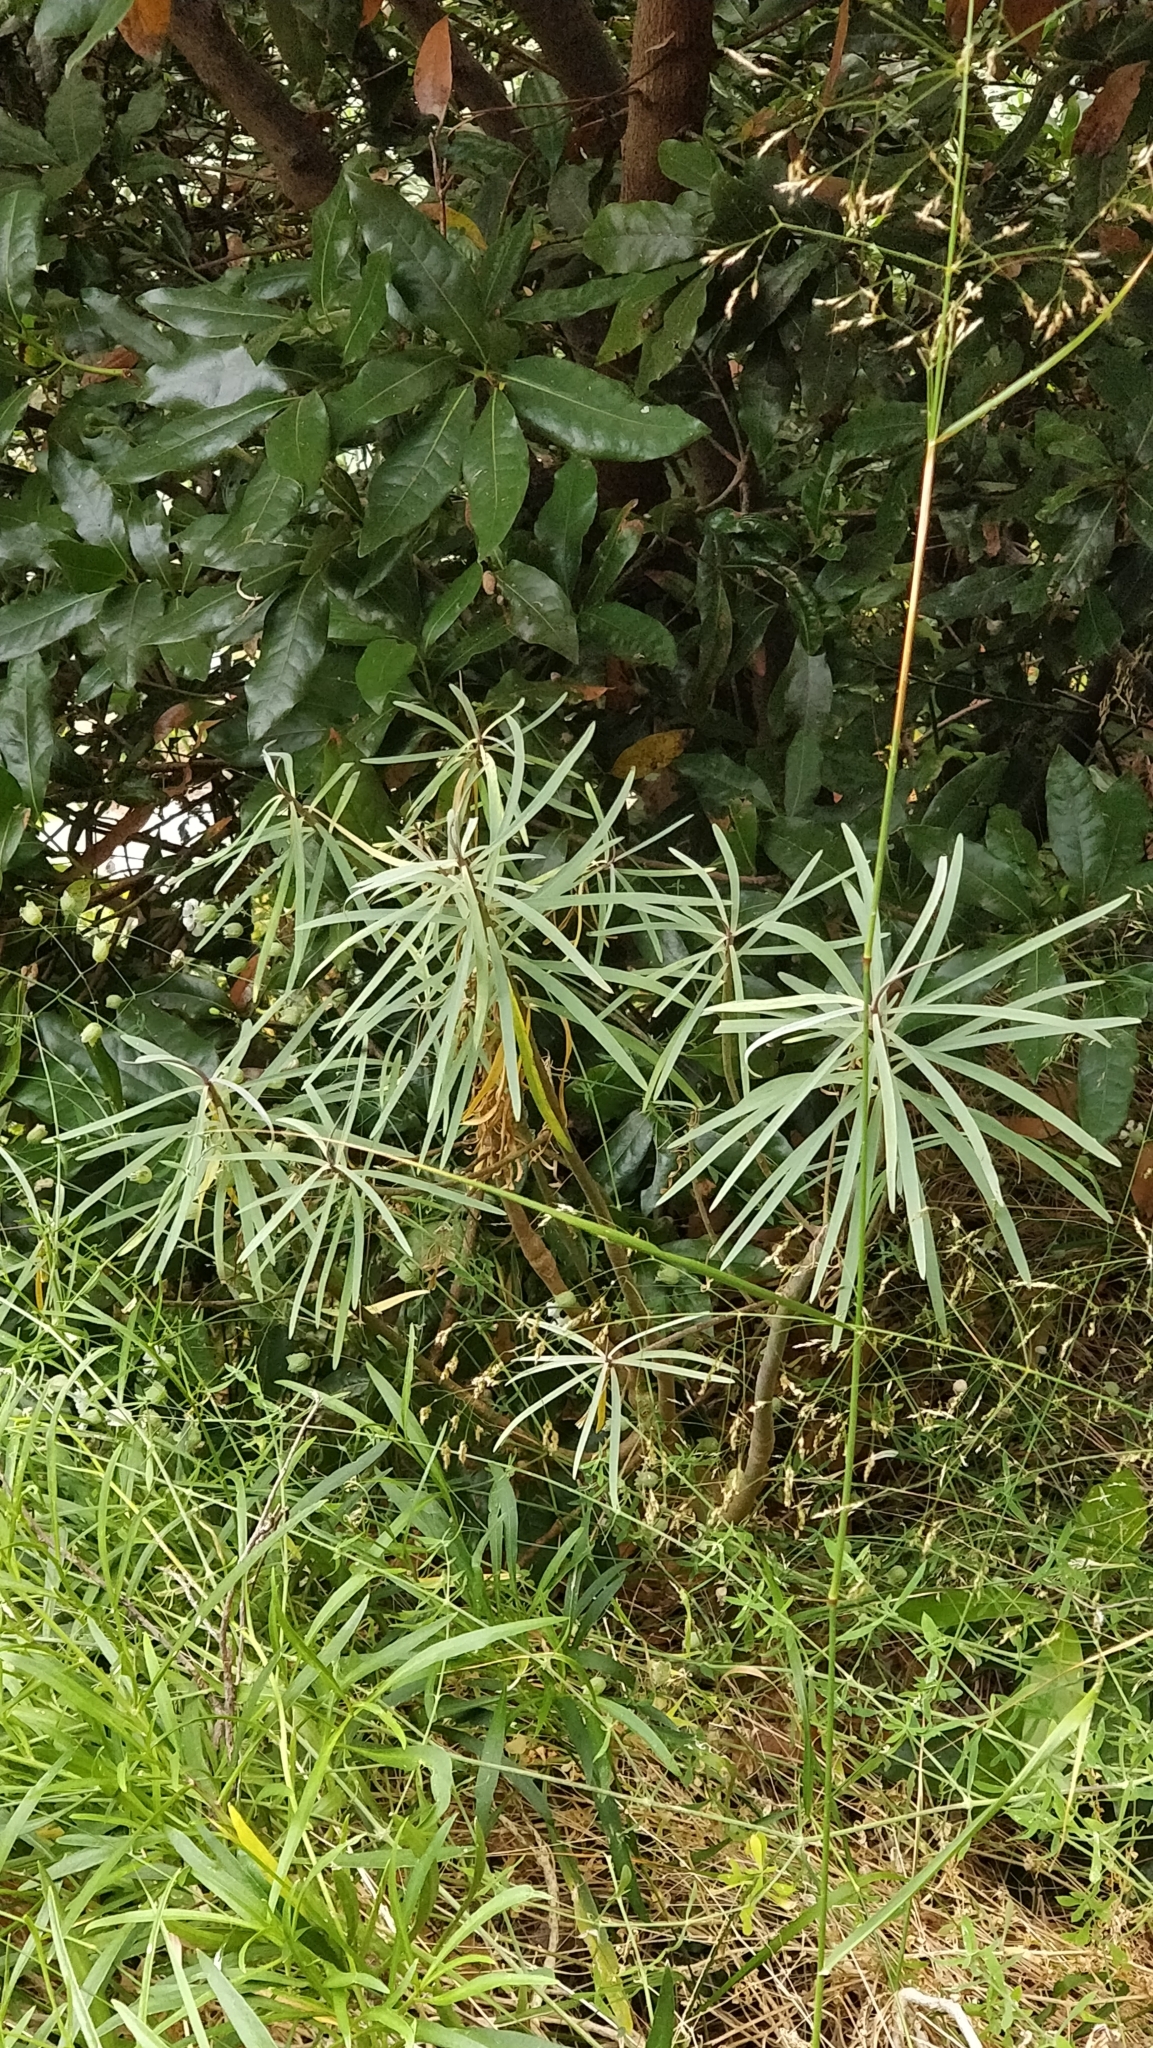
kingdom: Plantae
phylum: Tracheophyta
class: Magnoliopsida
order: Malpighiales
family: Euphorbiaceae
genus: Euphorbia
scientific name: Euphorbia piscatoria
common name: Fish-stunning spurge
